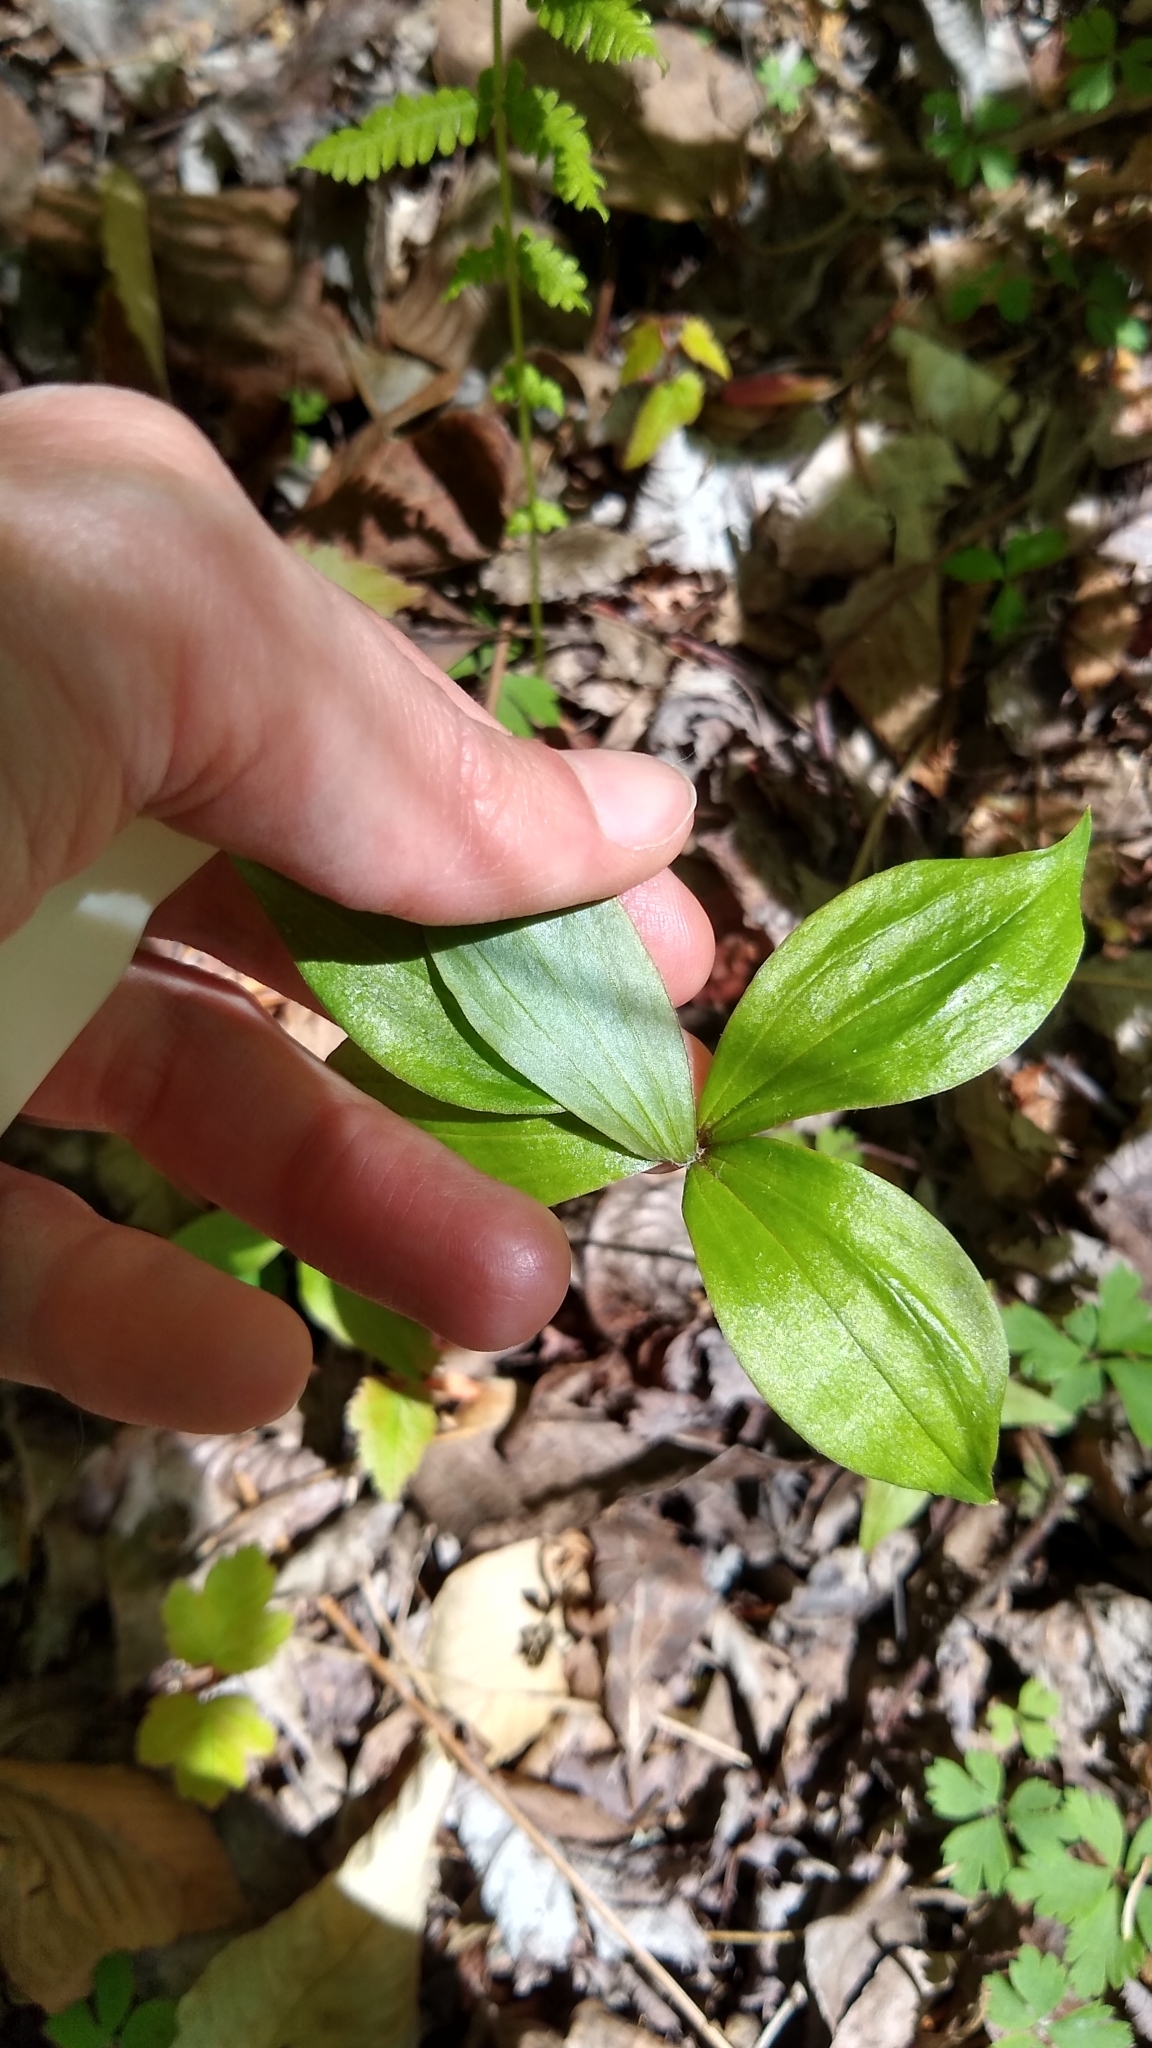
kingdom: Plantae
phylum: Tracheophyta
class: Liliopsida
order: Liliales
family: Liliaceae
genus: Medeola
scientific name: Medeola virginiana
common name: Indian cucumber-root
